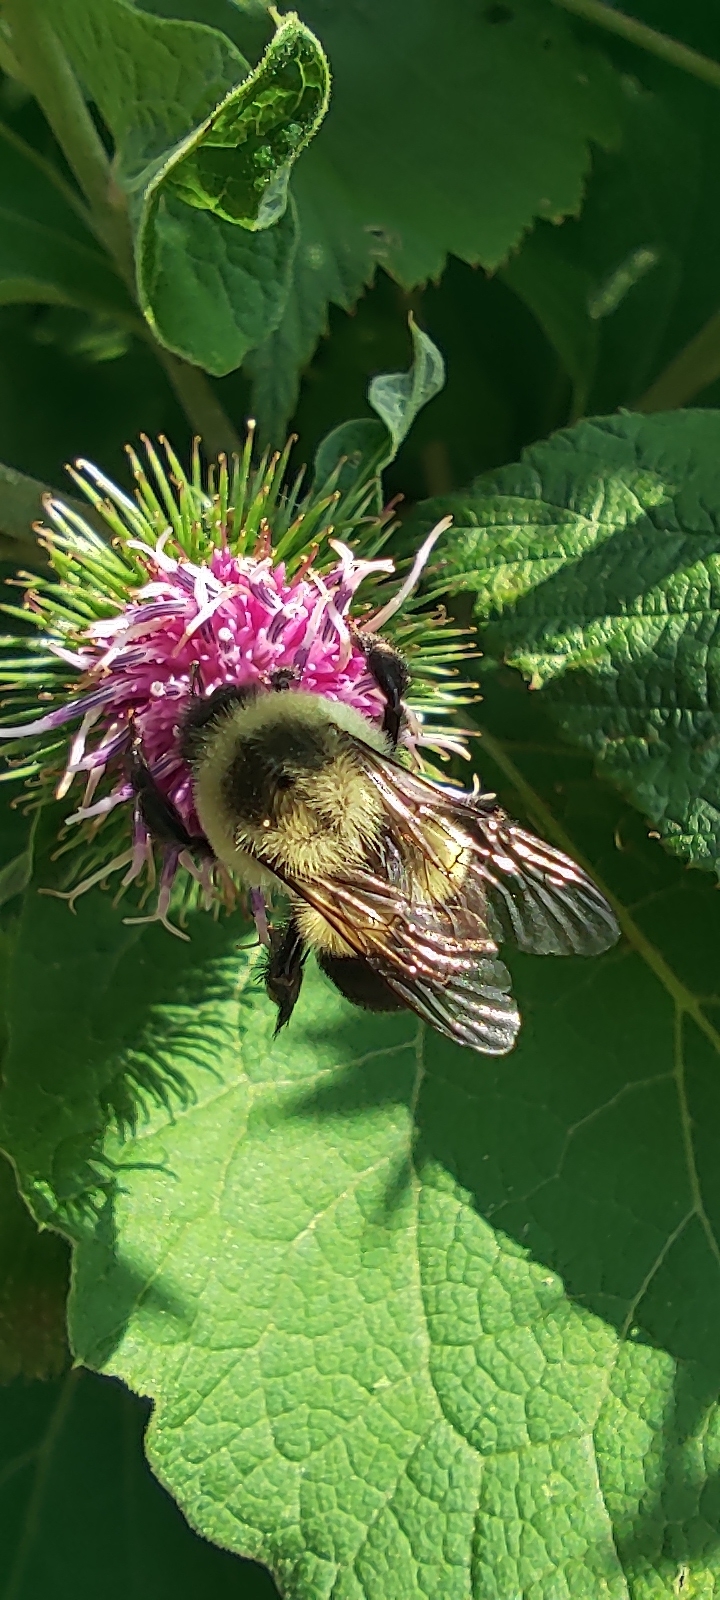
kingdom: Animalia
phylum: Arthropoda
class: Insecta
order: Hymenoptera
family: Apidae
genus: Bombus
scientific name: Bombus impatiens
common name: Common eastern bumble bee
